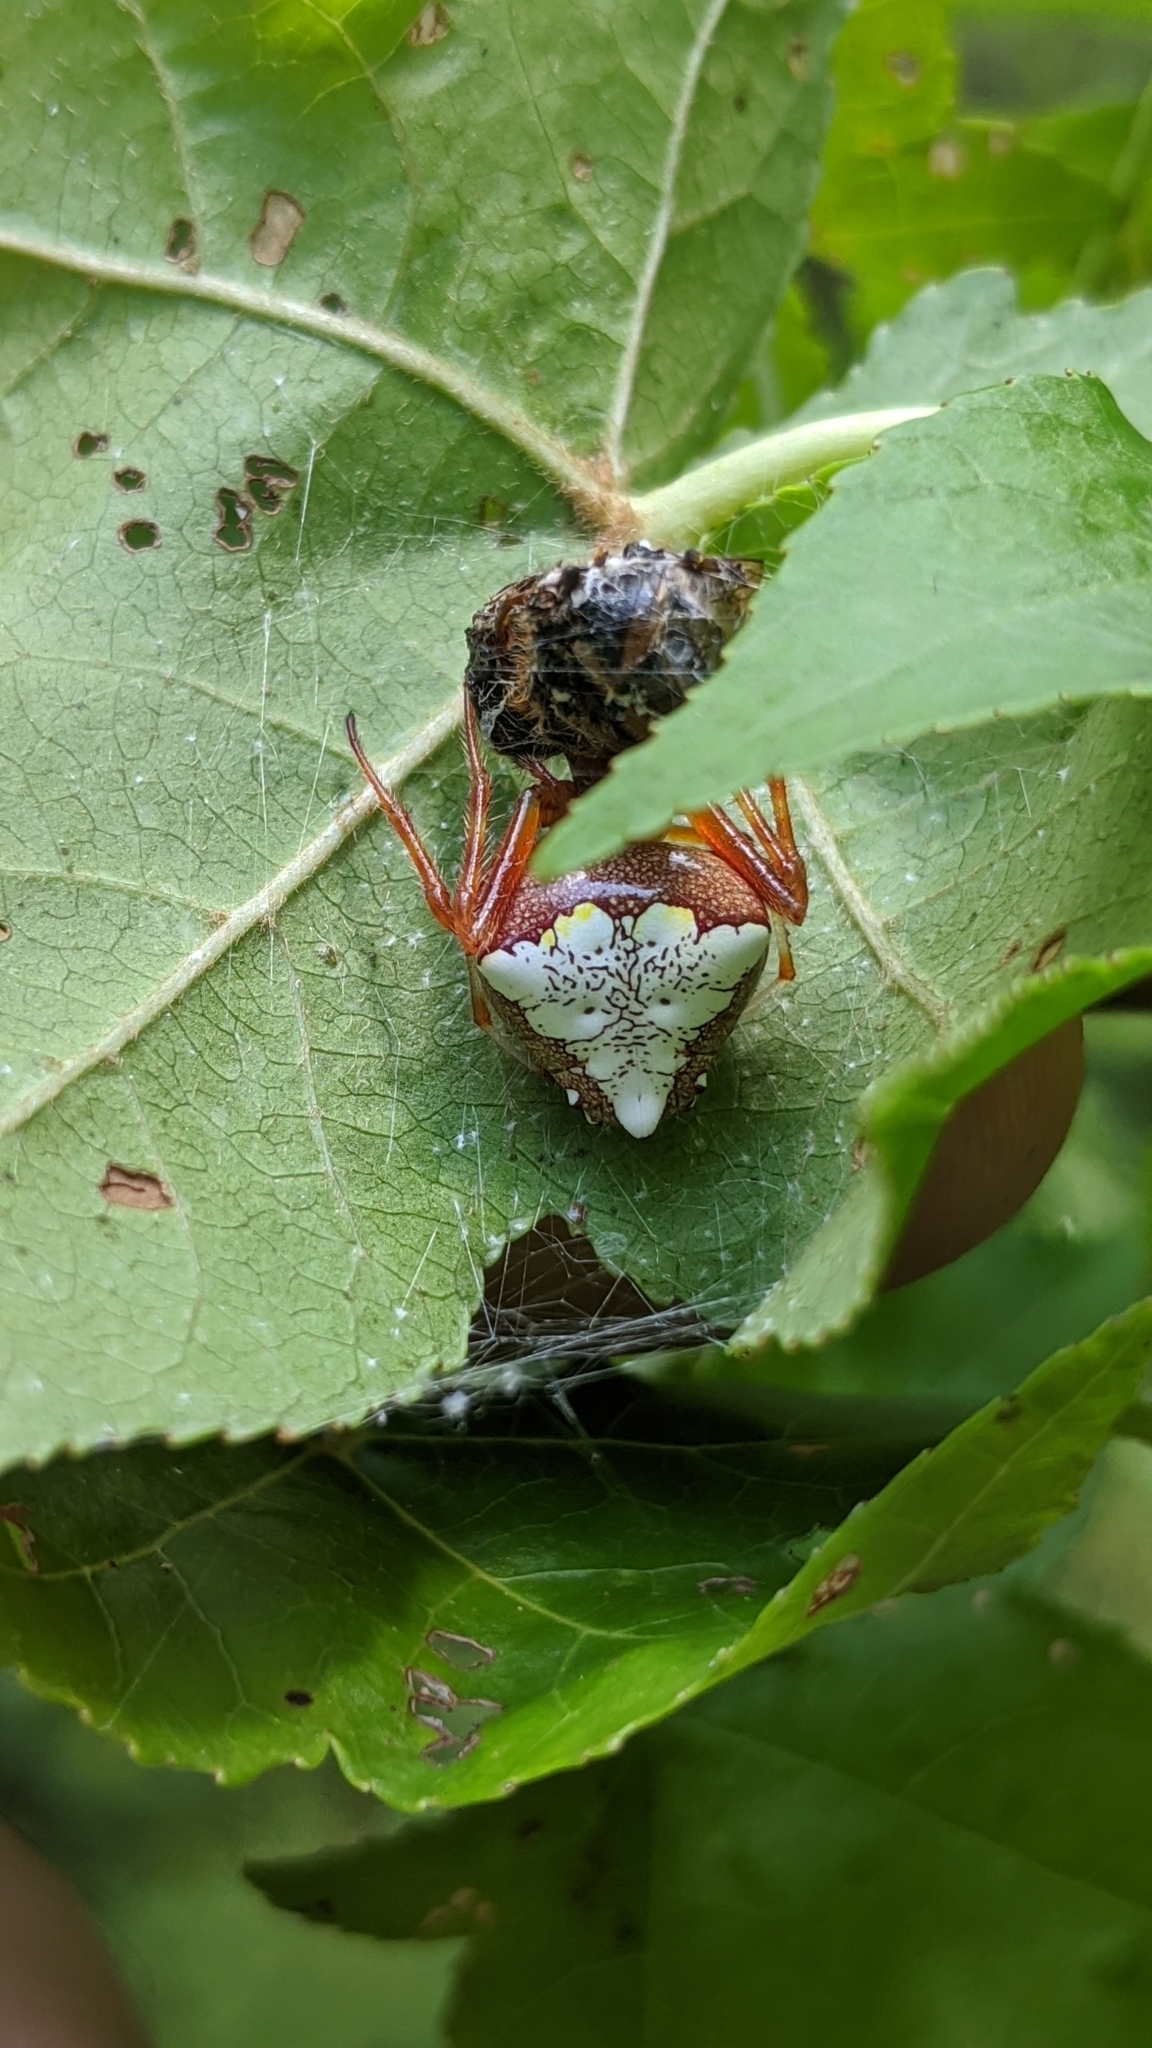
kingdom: Animalia
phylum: Arthropoda
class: Arachnida
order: Araneae
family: Araneidae
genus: Verrucosa
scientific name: Verrucosa arenata
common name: Orb weavers
